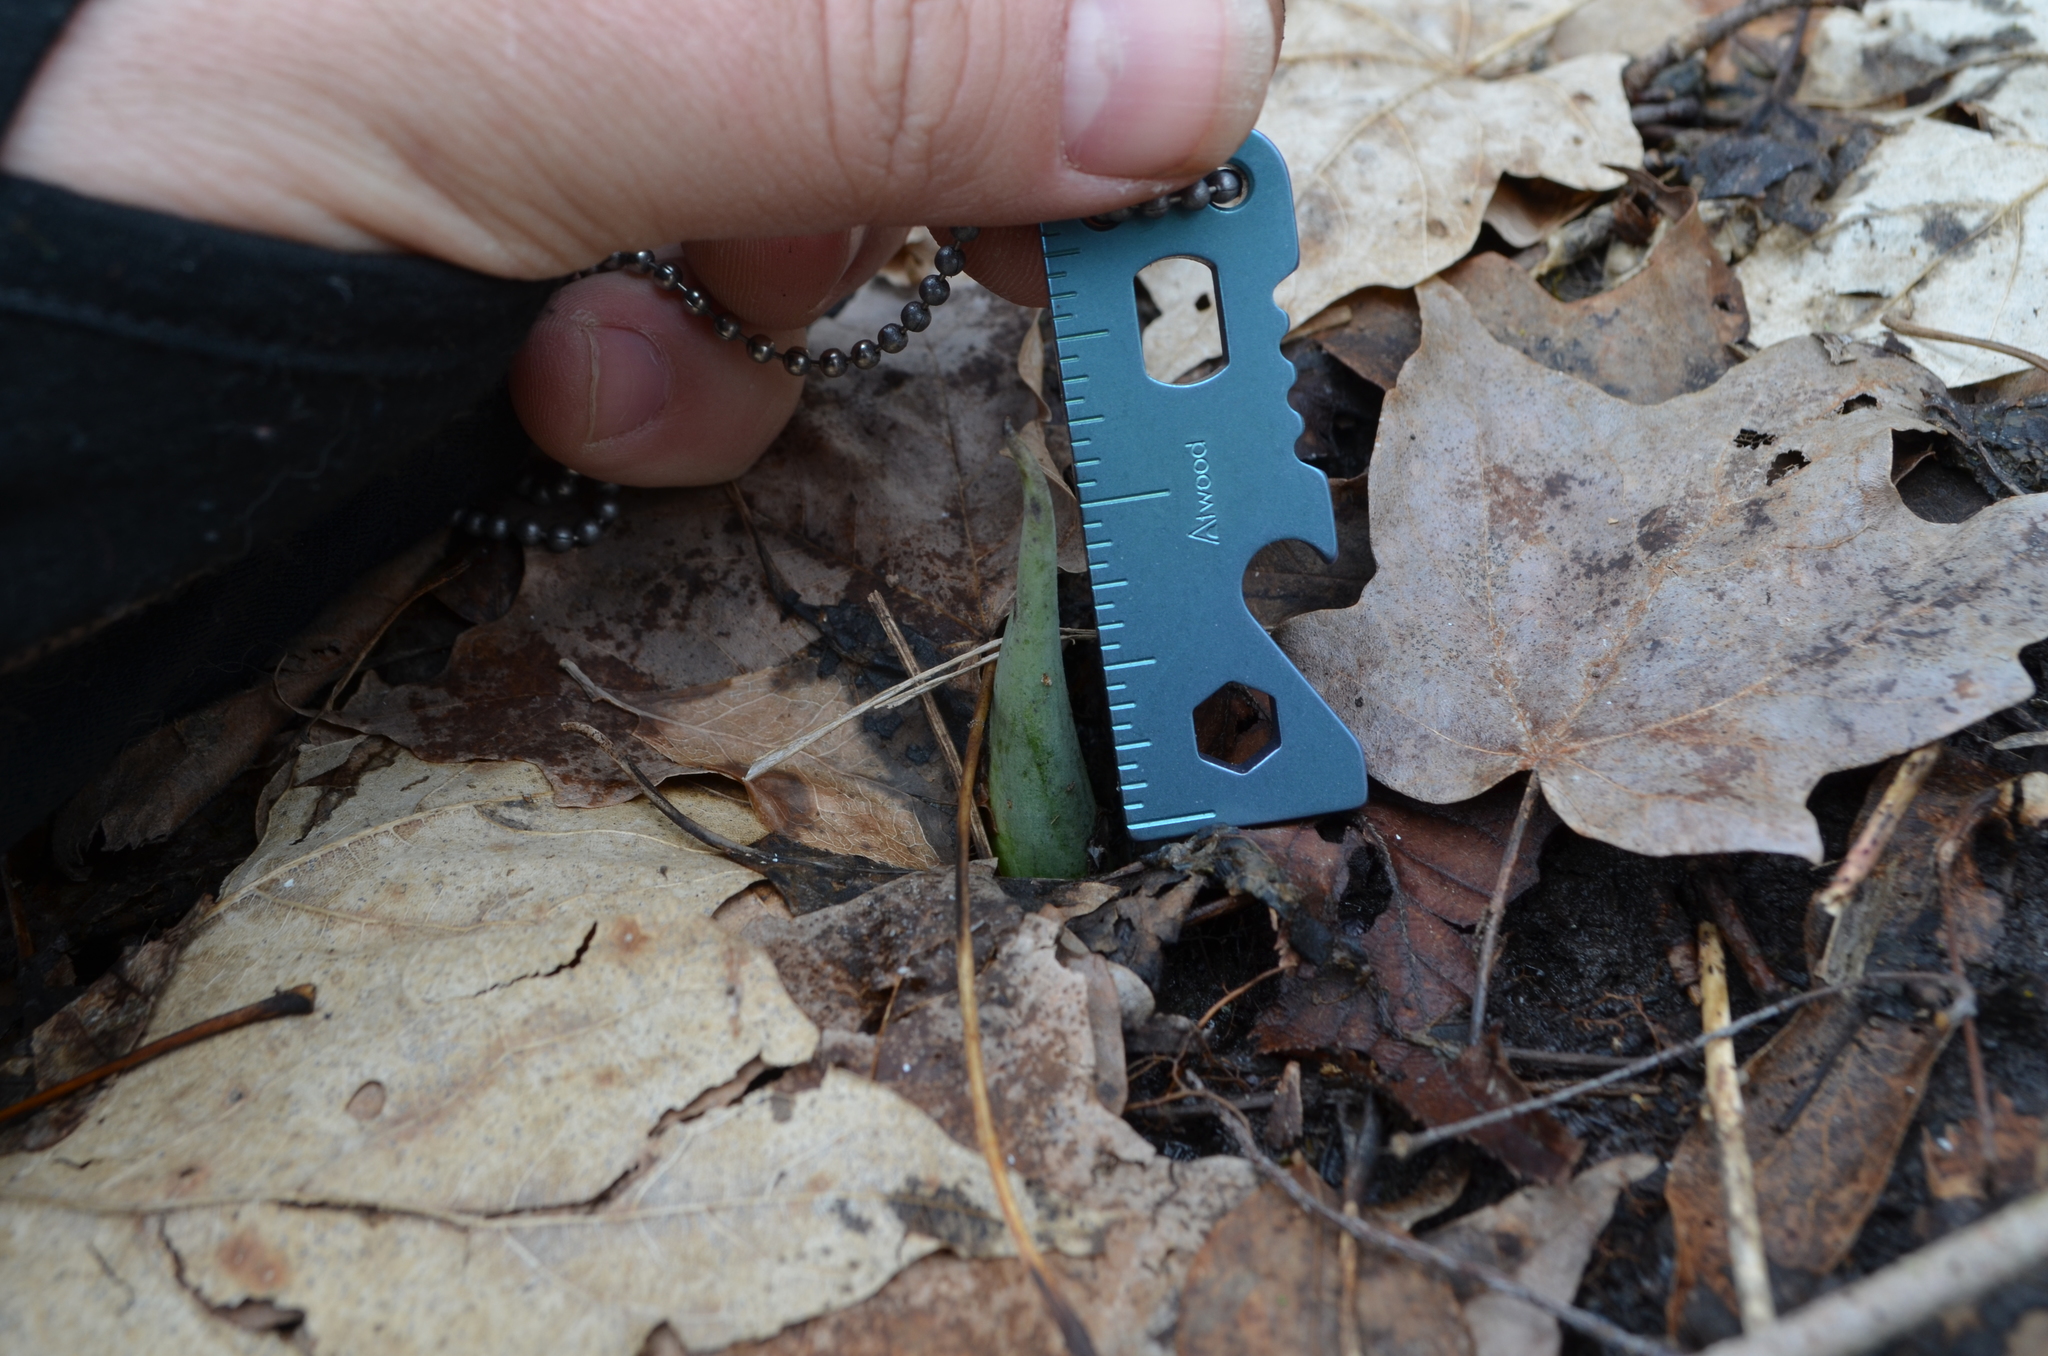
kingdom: Plantae
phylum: Tracheophyta
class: Liliopsida
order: Alismatales
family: Araceae
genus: Symplocarpus
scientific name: Symplocarpus foetidus
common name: Eastern skunk cabbage
